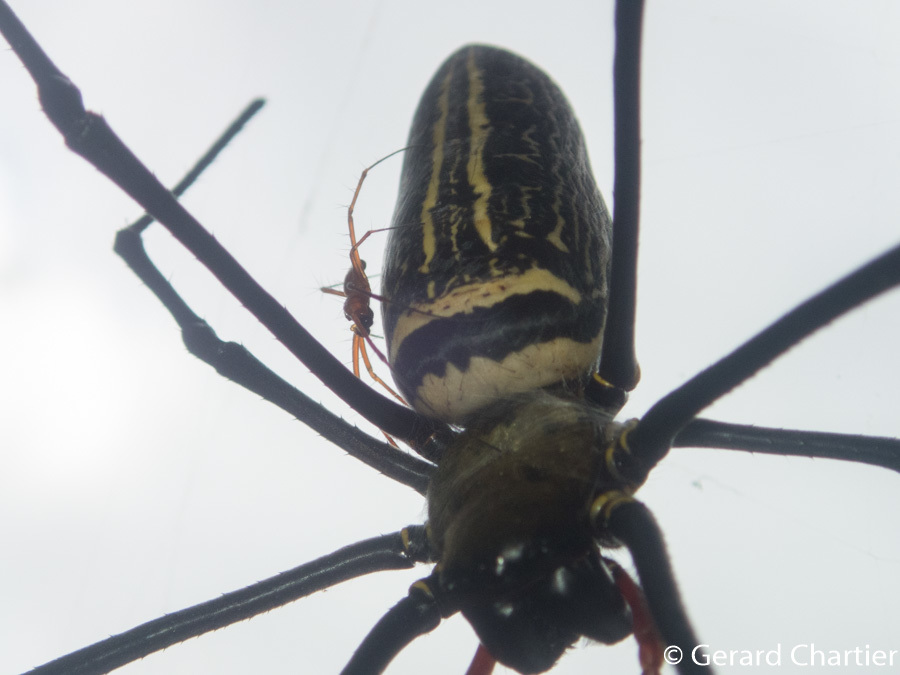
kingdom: Animalia
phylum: Arthropoda
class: Arachnida
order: Araneae
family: Araneidae
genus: Nephila
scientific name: Nephila pilipes
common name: Giant golden orb weaver
